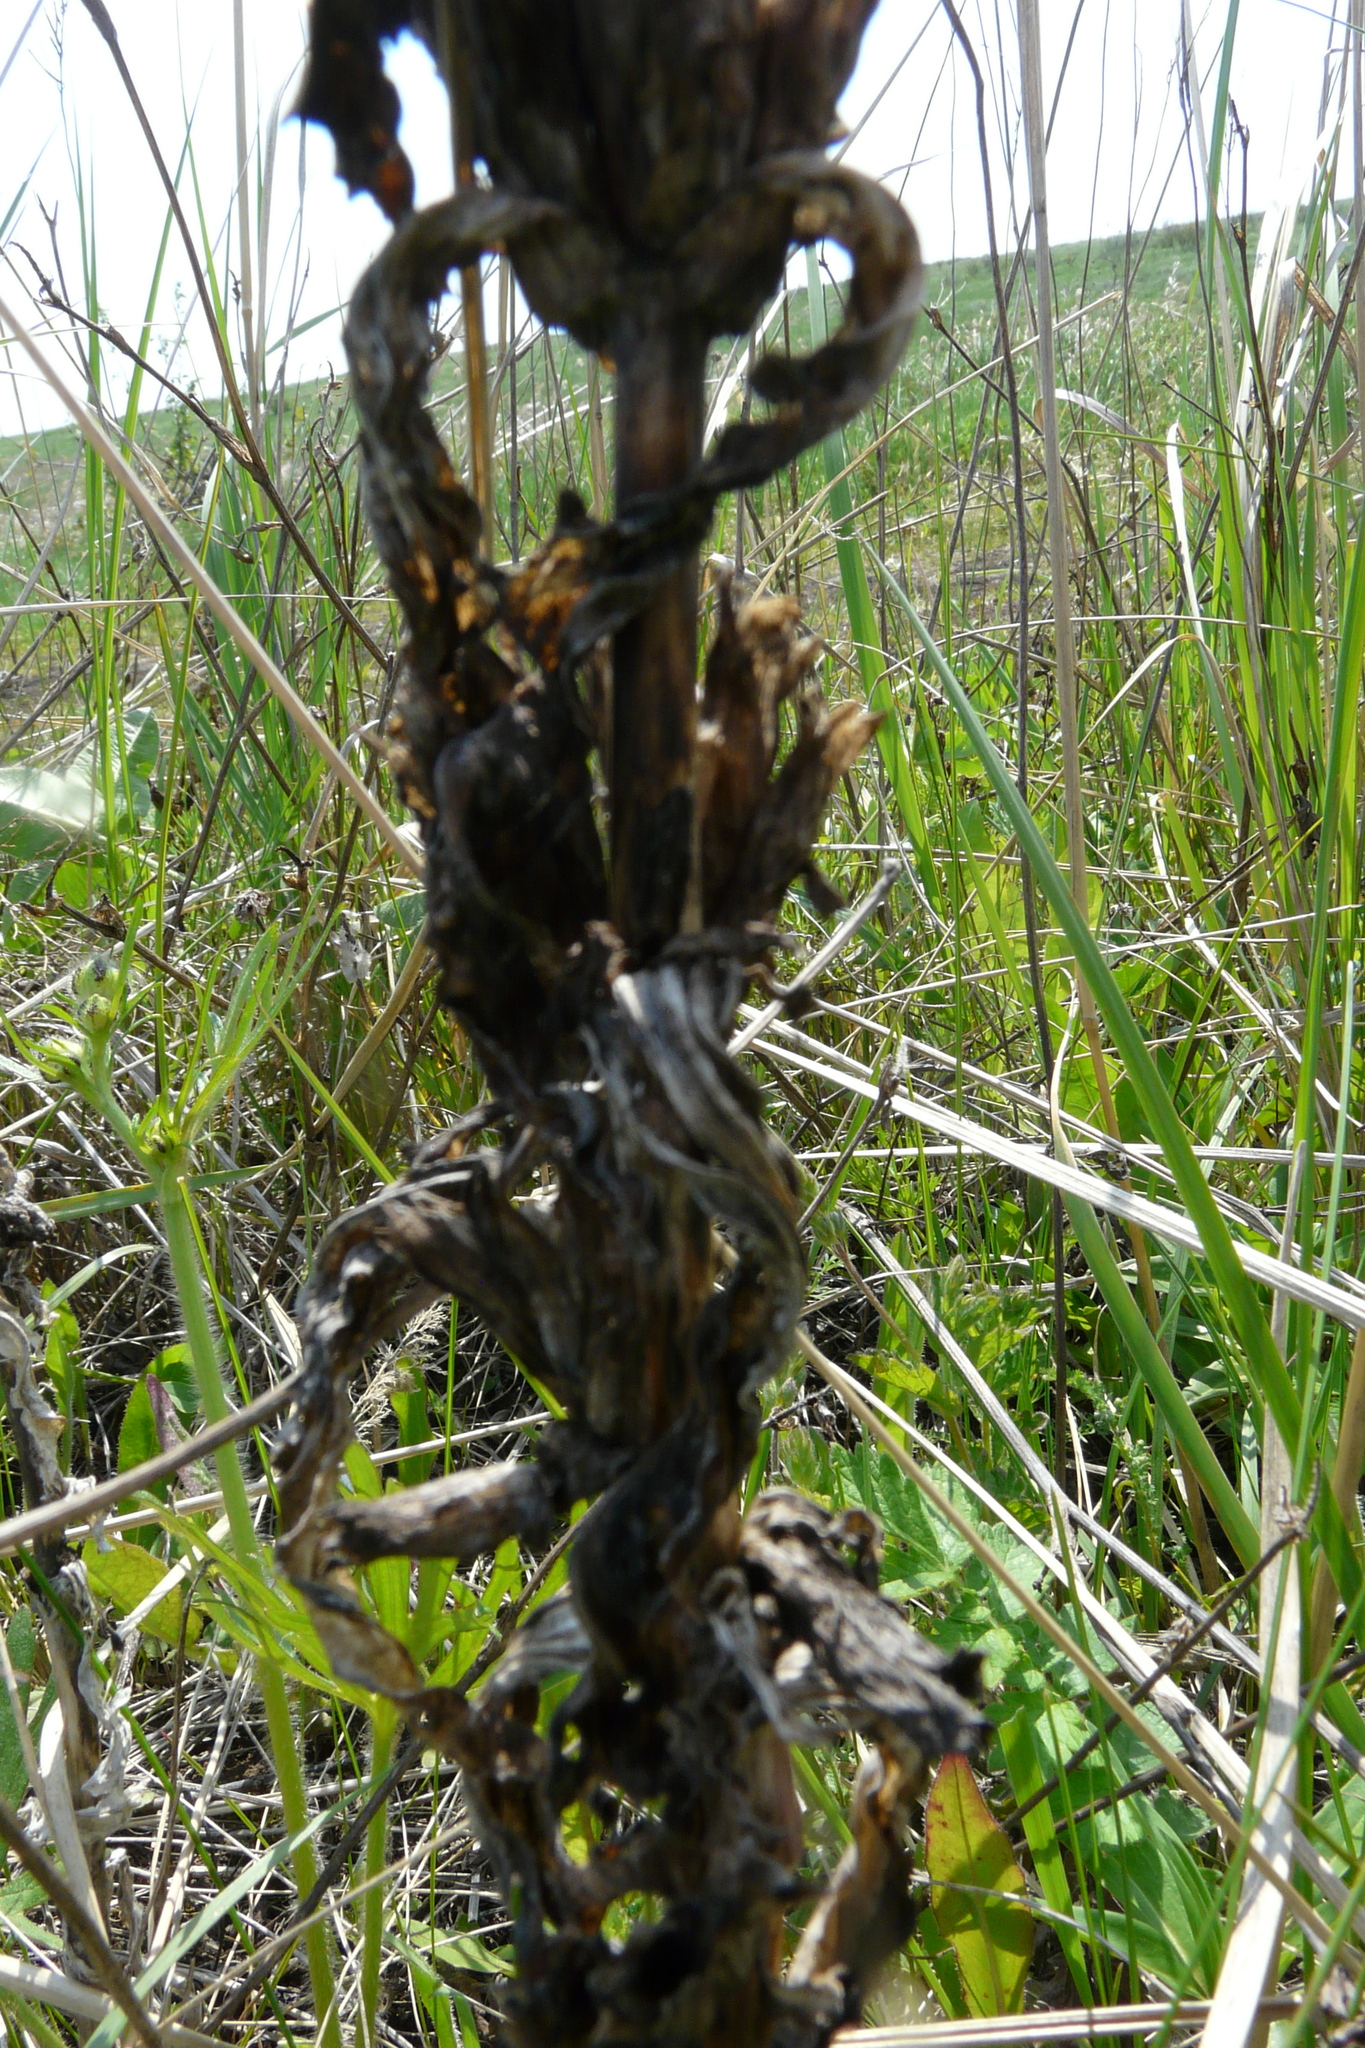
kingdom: Plantae
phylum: Tracheophyta
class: Magnoliopsida
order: Gentianales
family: Gentianaceae
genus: Gentiana
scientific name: Gentiana cruciata
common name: Cross gentian
